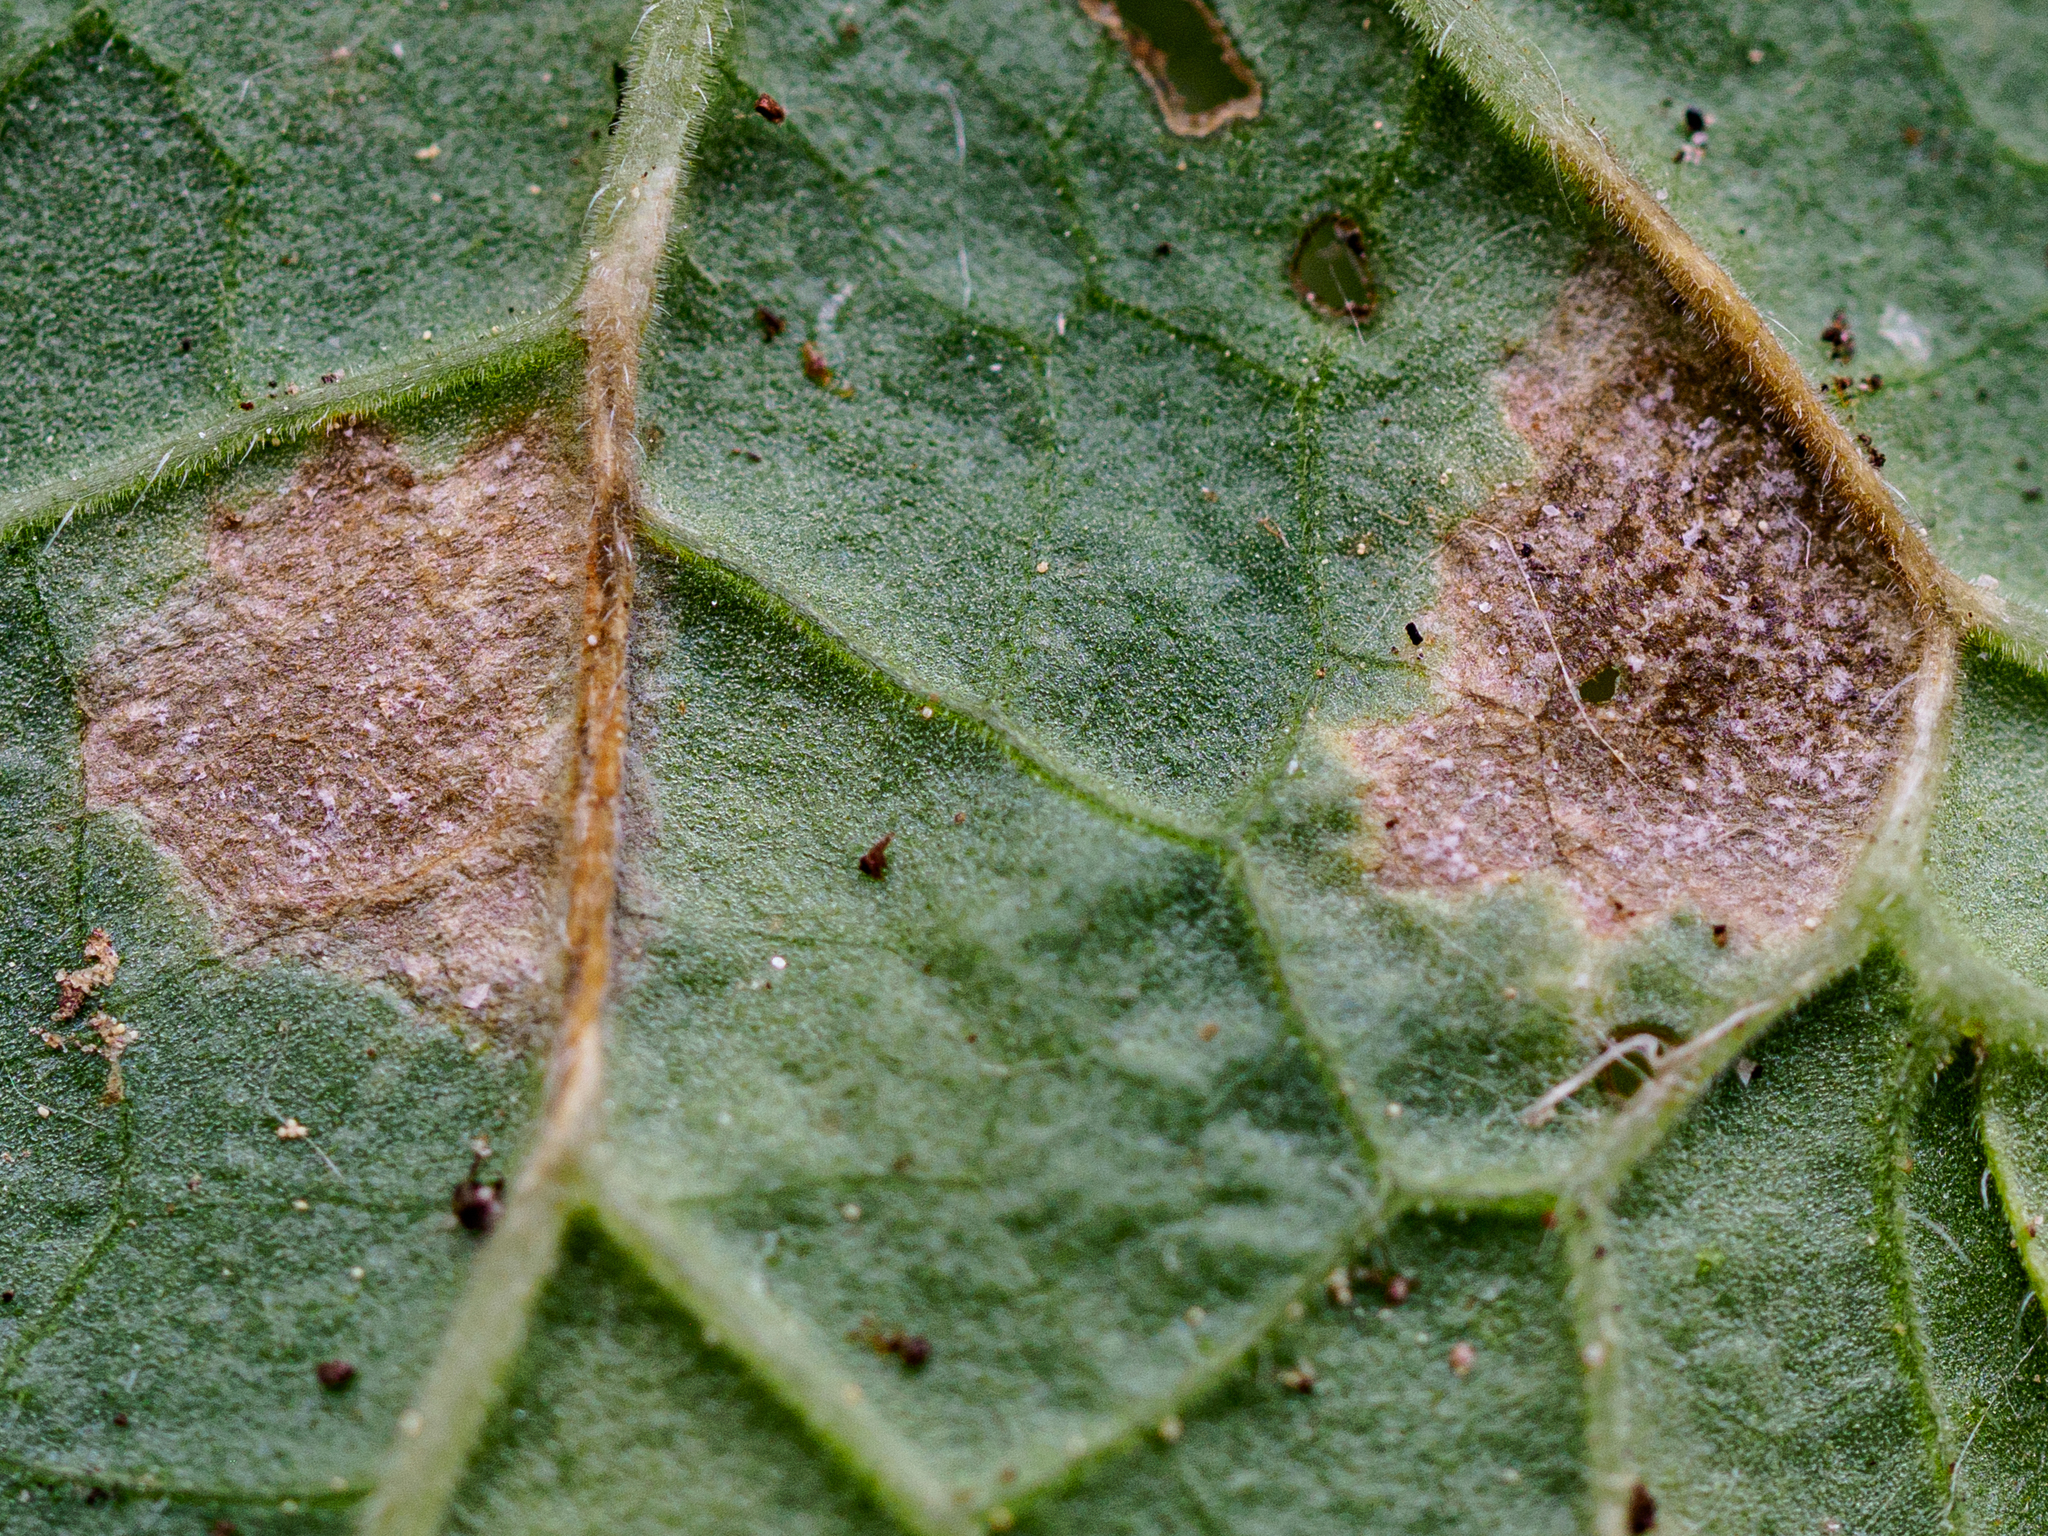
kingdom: Fungi
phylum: Ascomycota
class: Dothideomycetes
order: Mycosphaerellales
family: Mycosphaerellaceae
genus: Ramularia
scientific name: Ramularia geranii
